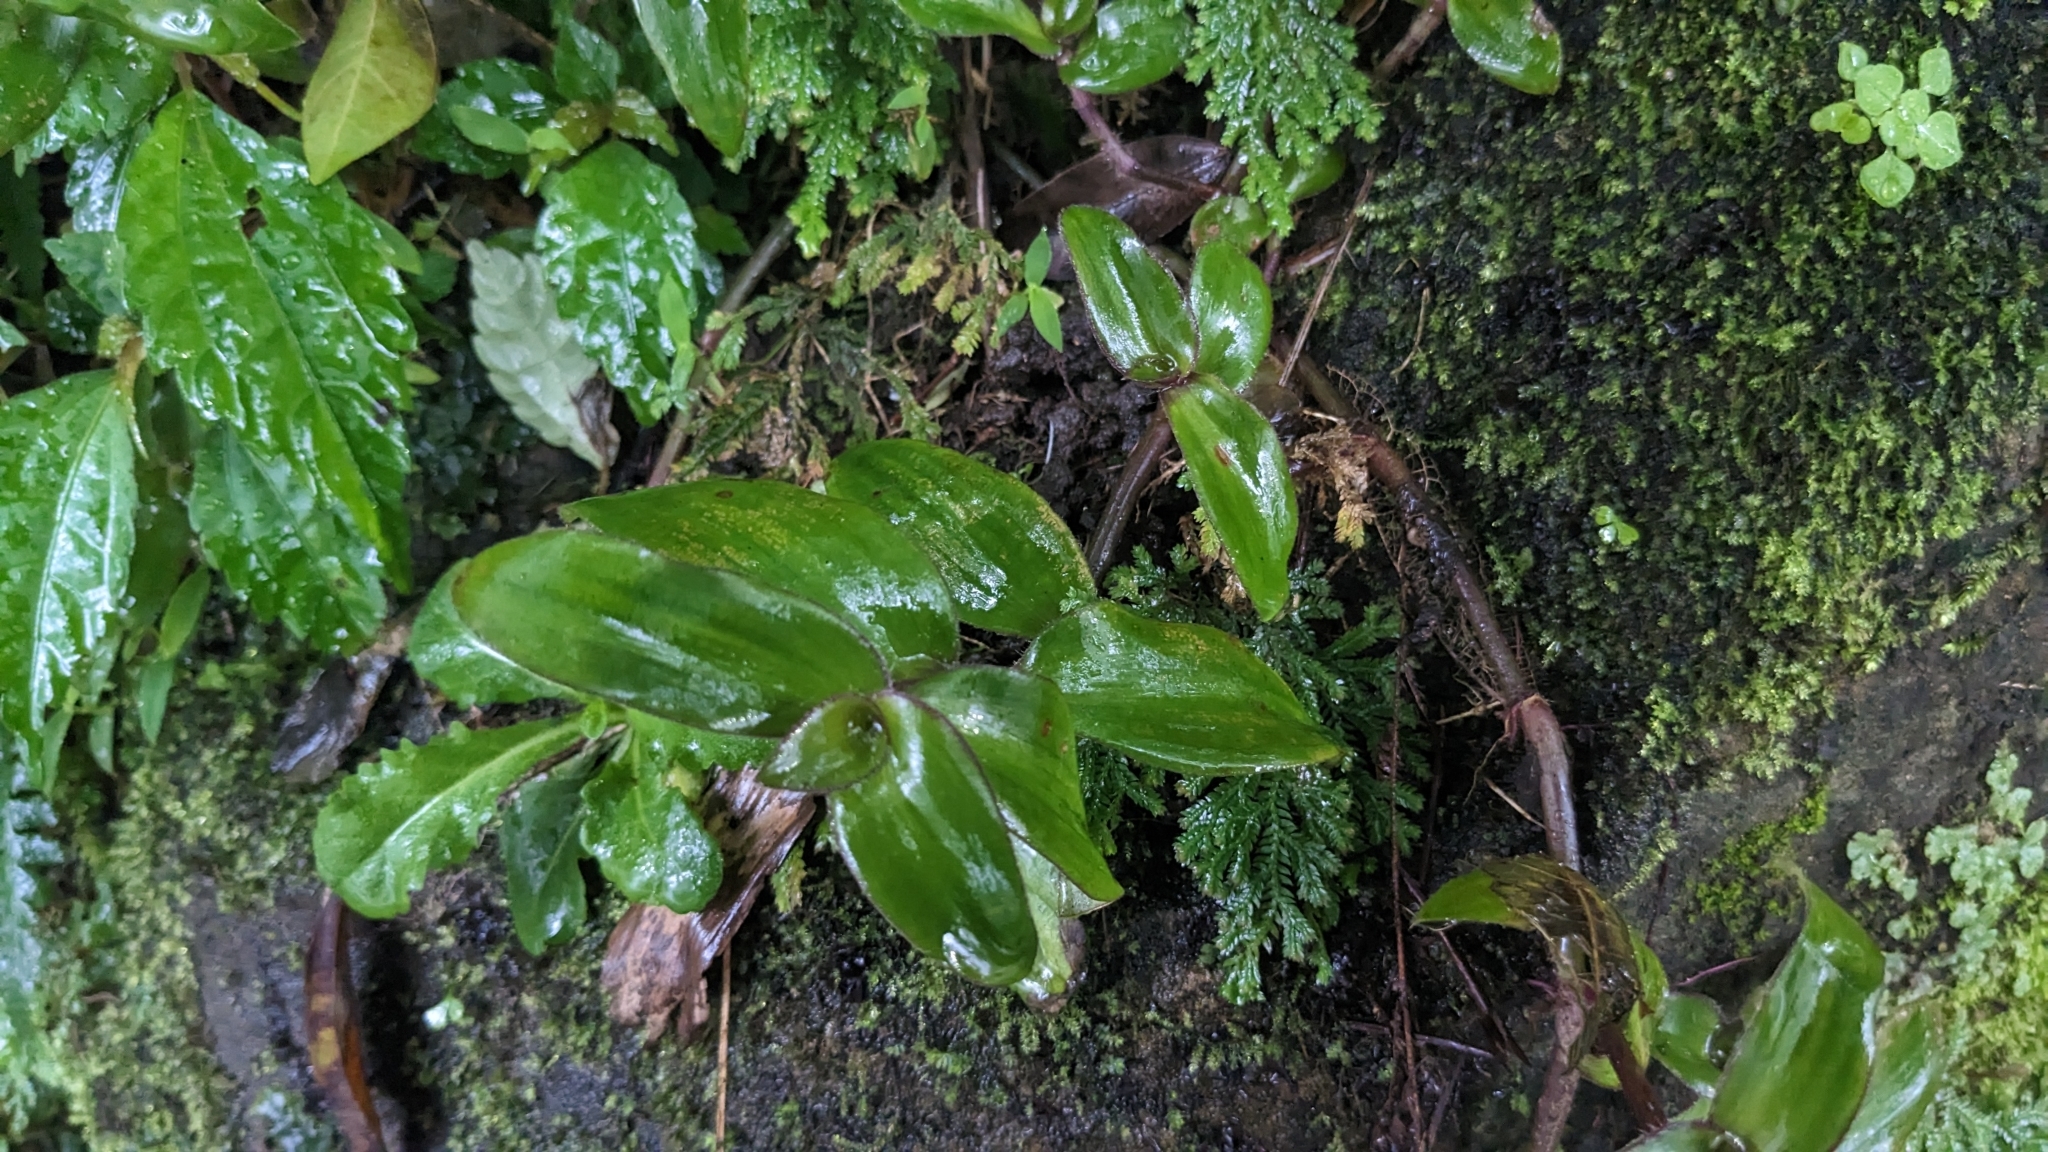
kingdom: Plantae
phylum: Tracheophyta
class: Liliopsida
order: Commelinales
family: Commelinaceae
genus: Cyanotis
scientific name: Cyanotis ciliata
